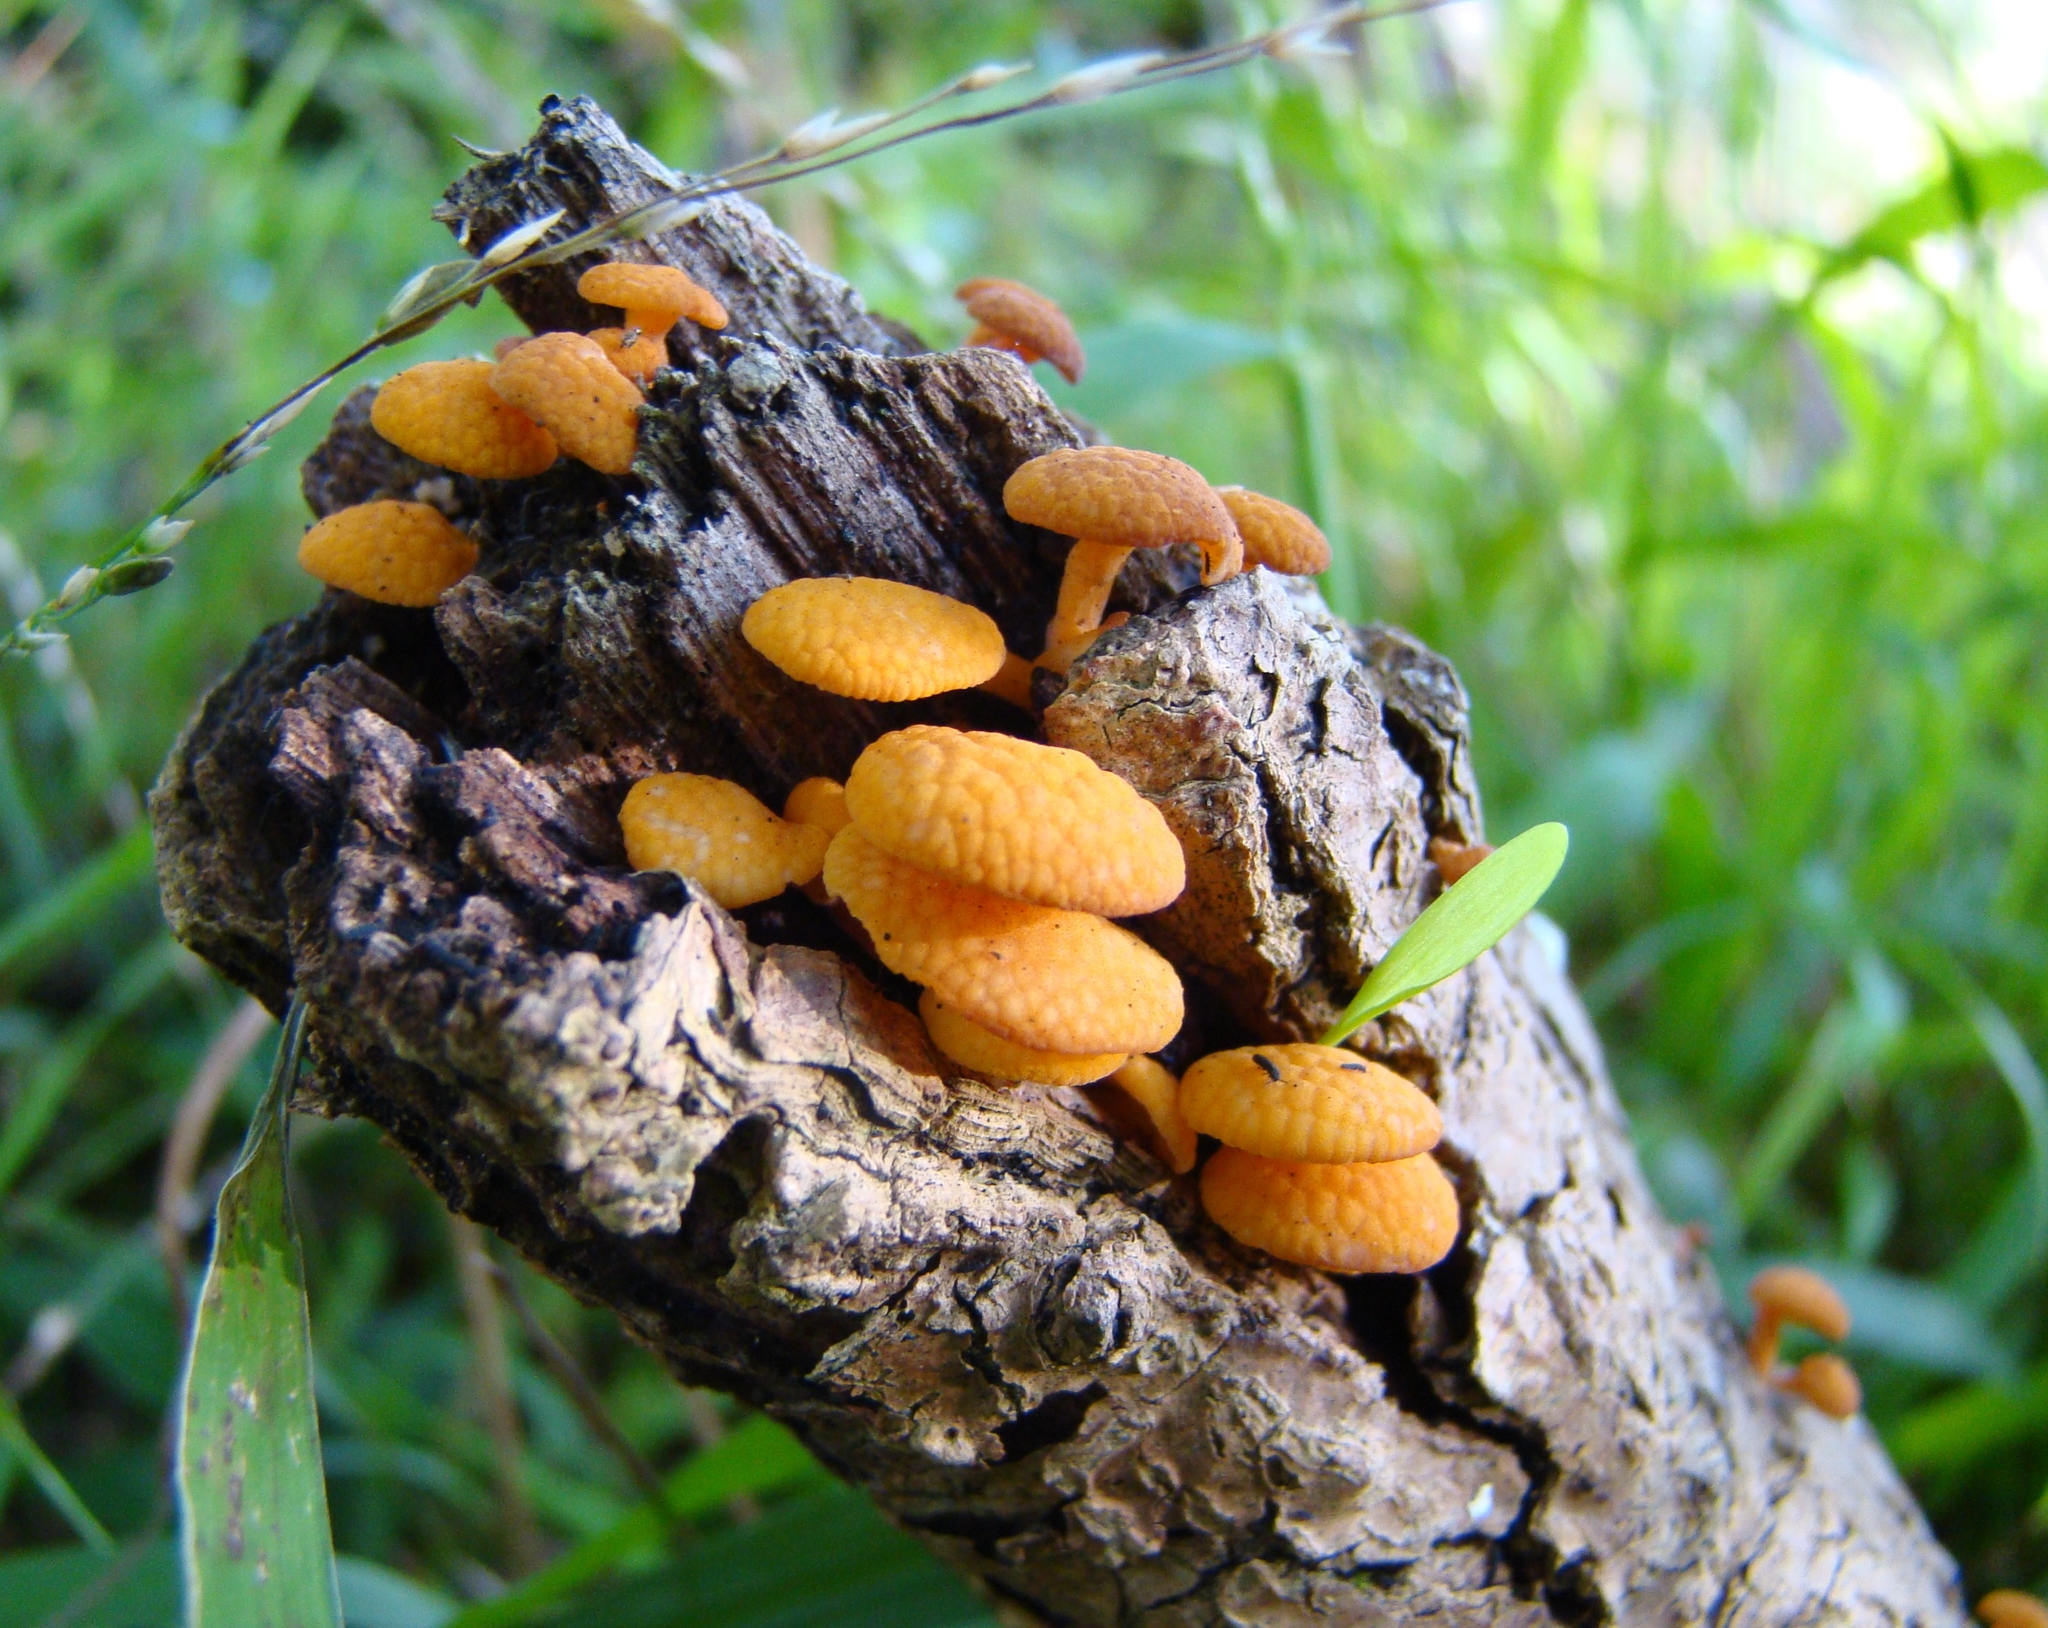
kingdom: Fungi
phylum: Basidiomycota
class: Agaricomycetes
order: Agaricales
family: Mycenaceae
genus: Favolaschia
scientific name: Favolaschia claudopus
